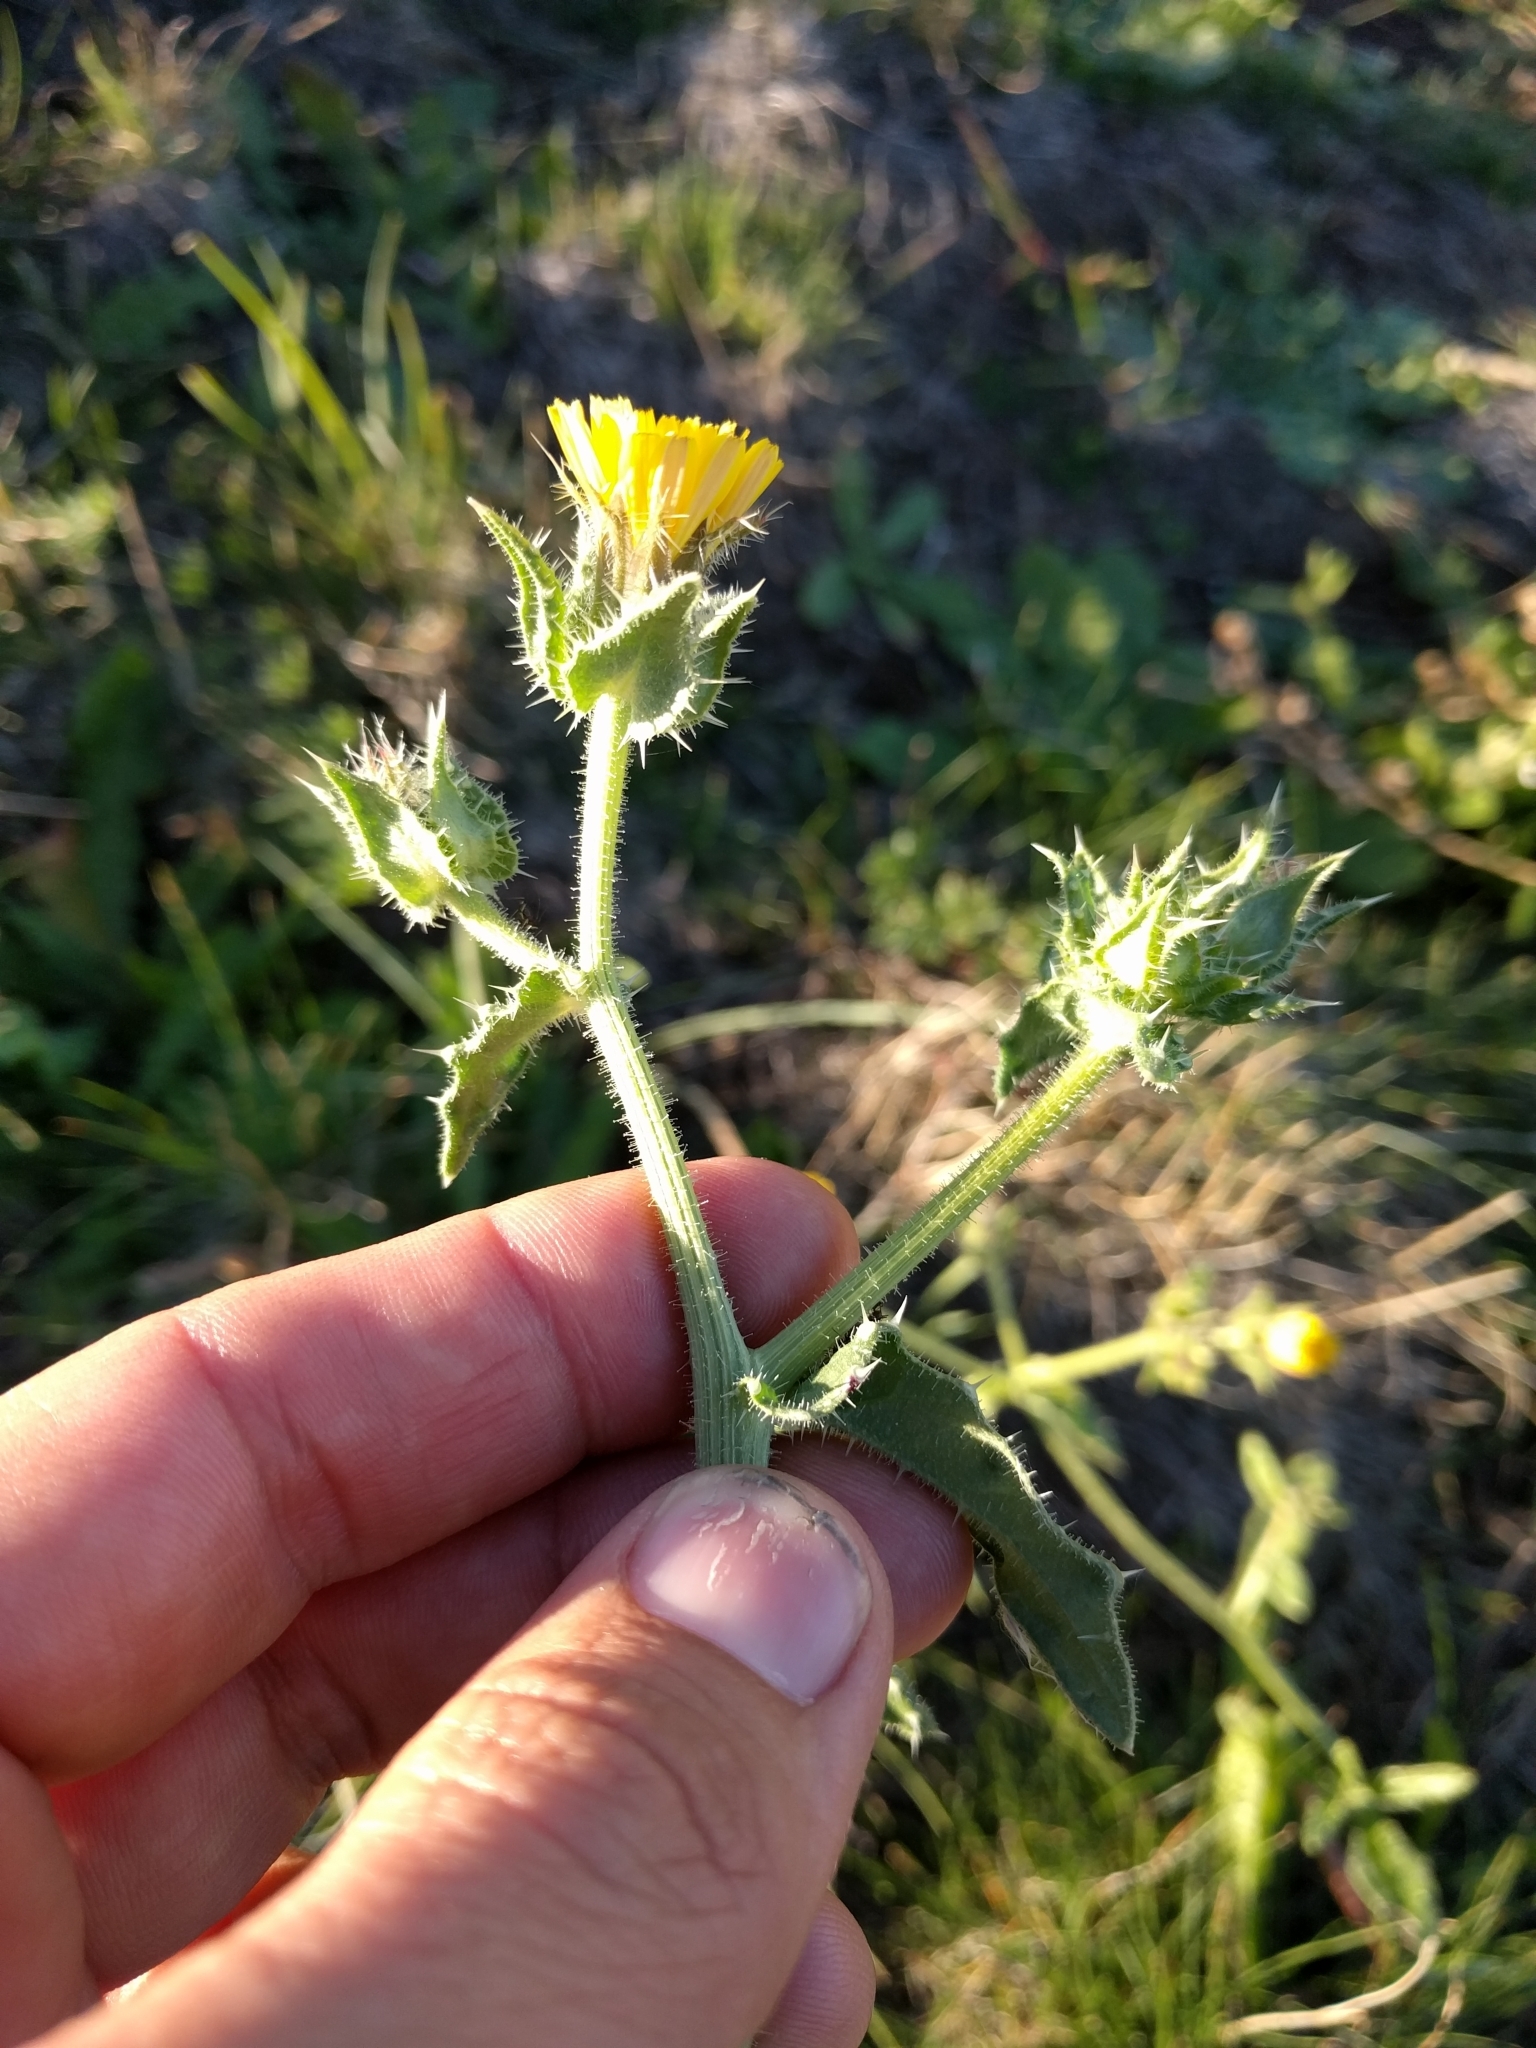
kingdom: Plantae
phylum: Tracheophyta
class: Magnoliopsida
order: Asterales
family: Asteraceae
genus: Helminthotheca
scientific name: Helminthotheca echioides
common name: Ox-tongue
